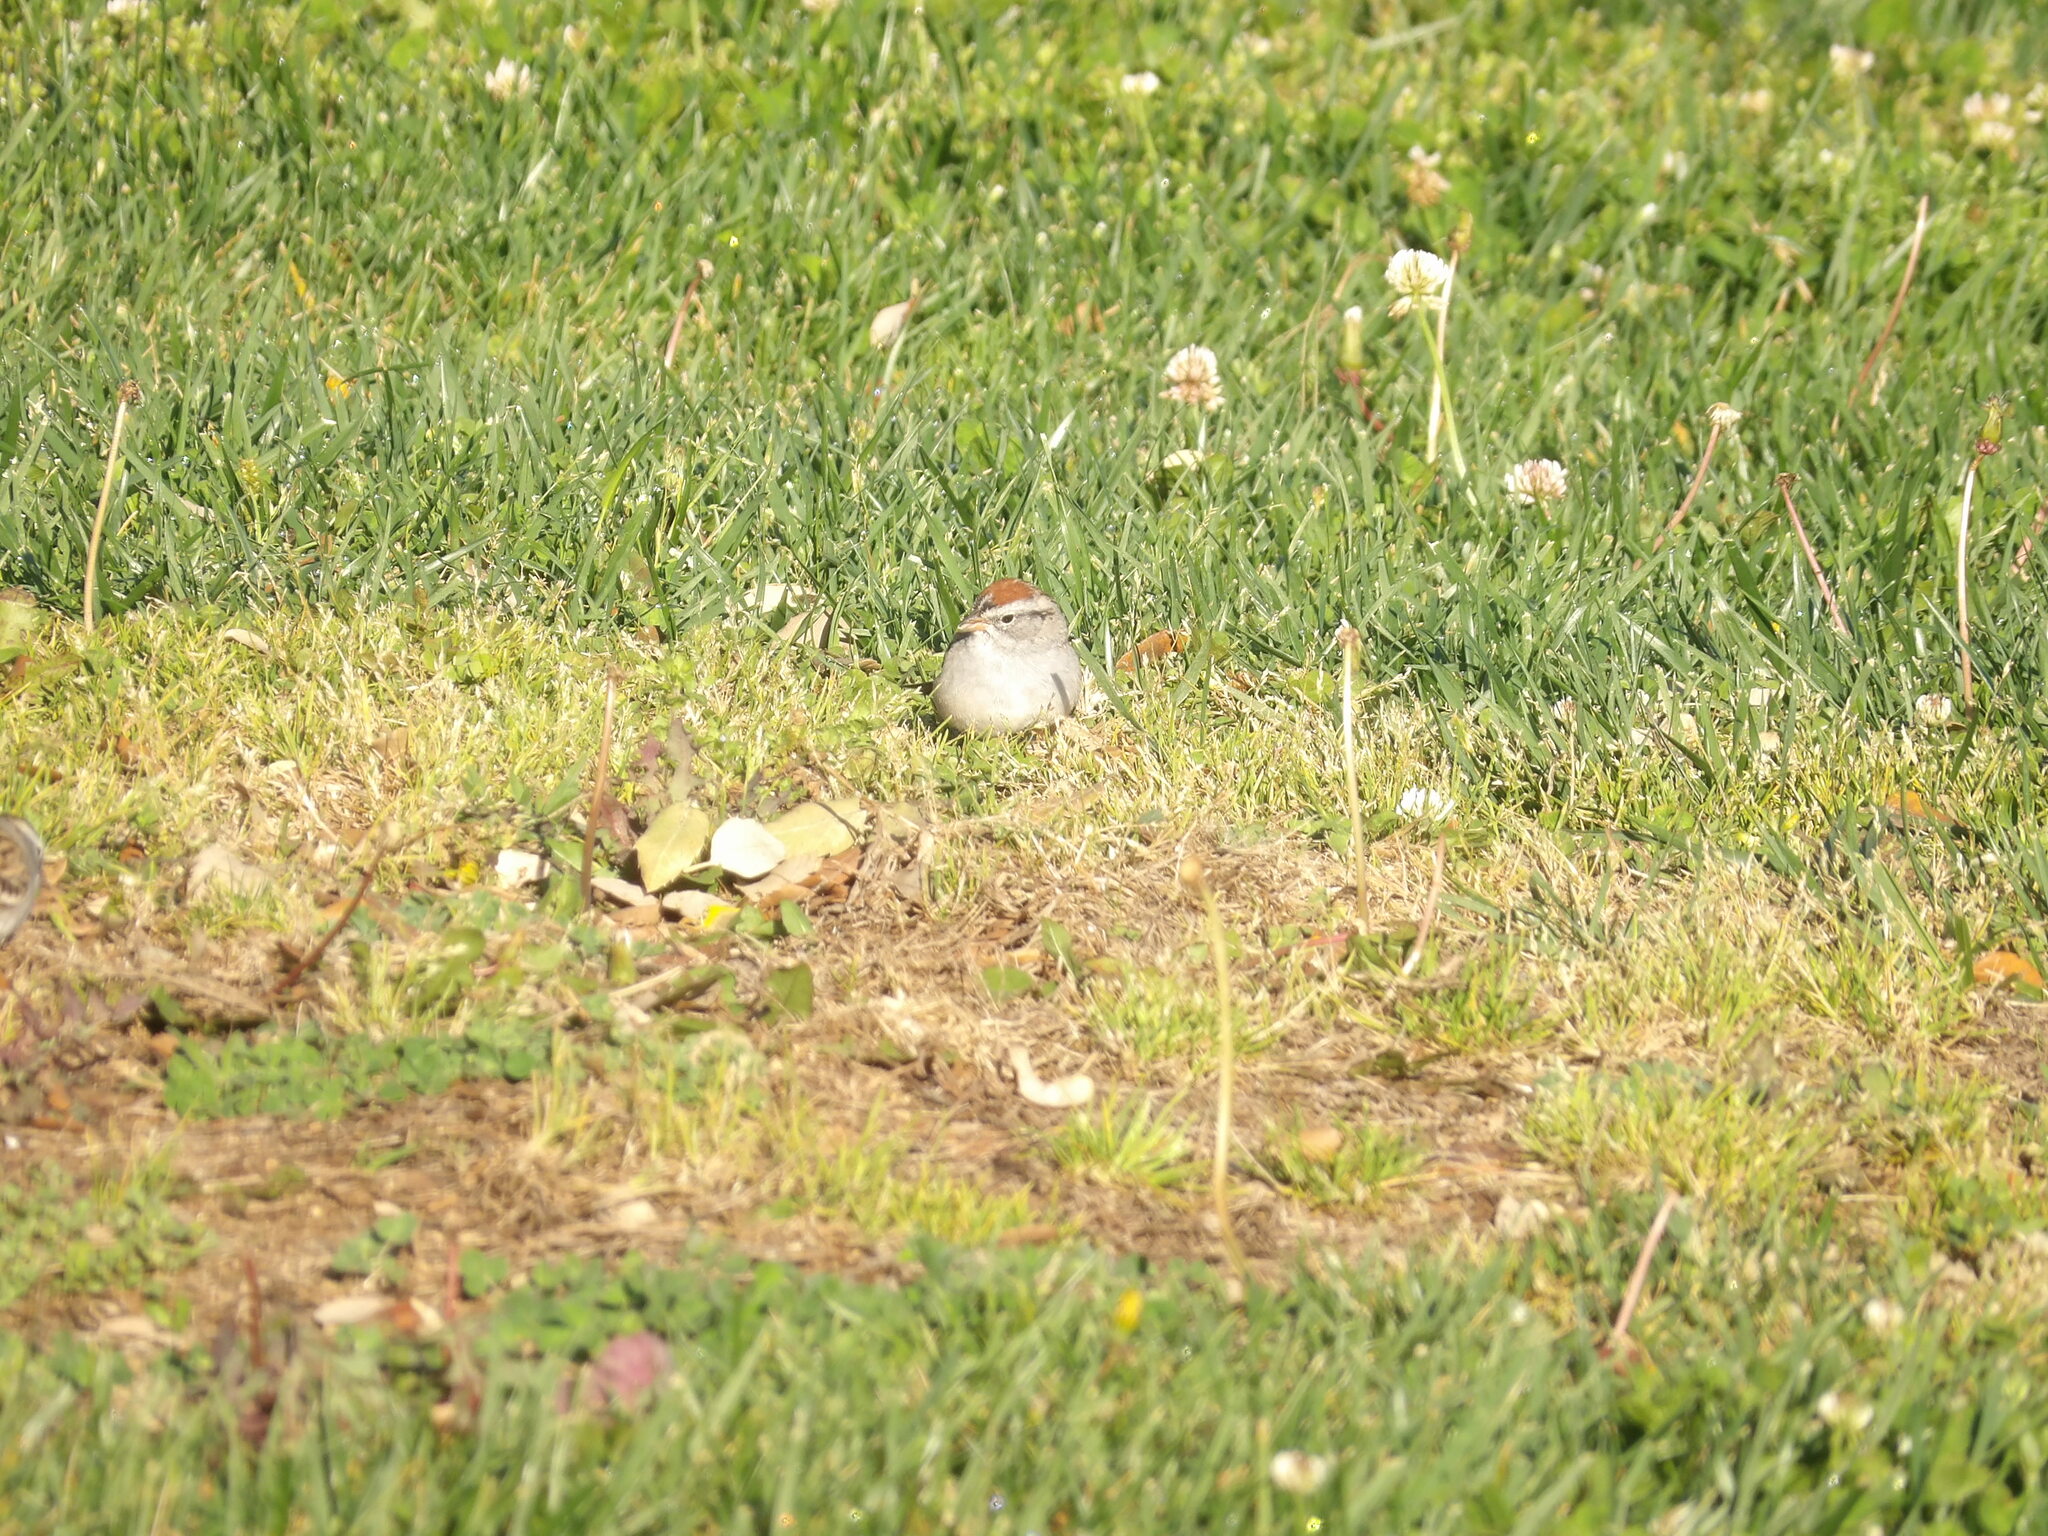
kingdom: Animalia
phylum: Chordata
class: Aves
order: Passeriformes
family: Passerellidae
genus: Spizella
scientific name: Spizella passerina
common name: Chipping sparrow
